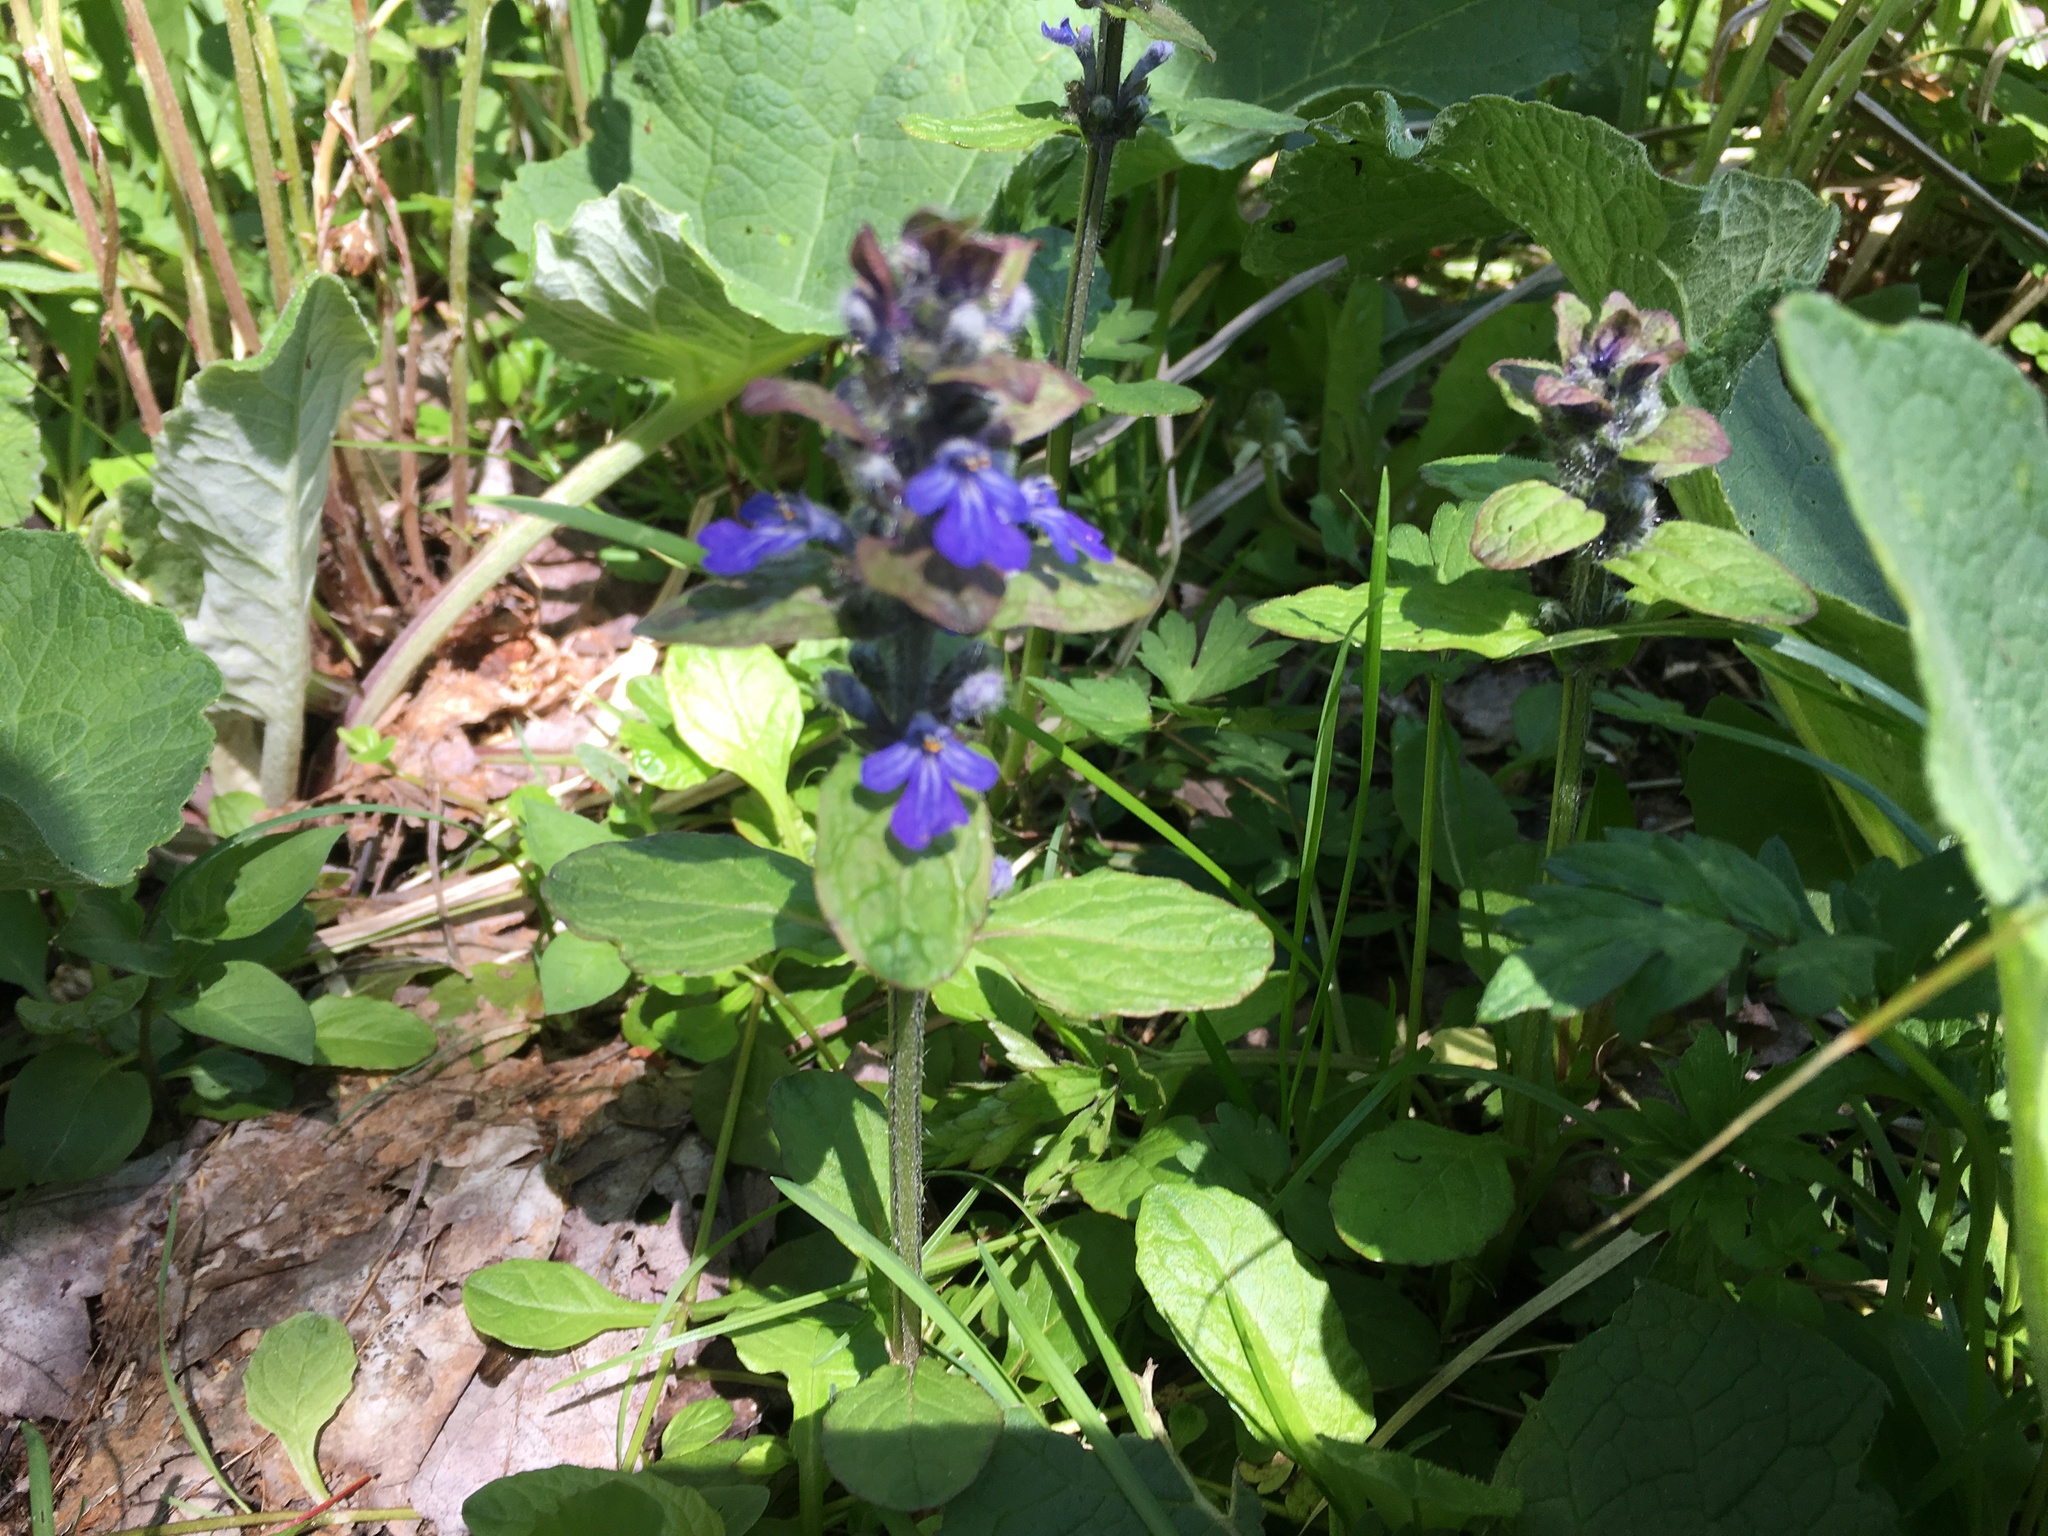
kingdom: Plantae
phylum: Tracheophyta
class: Magnoliopsida
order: Lamiales
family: Lamiaceae
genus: Ajuga
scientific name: Ajuga reptans
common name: Bugle
